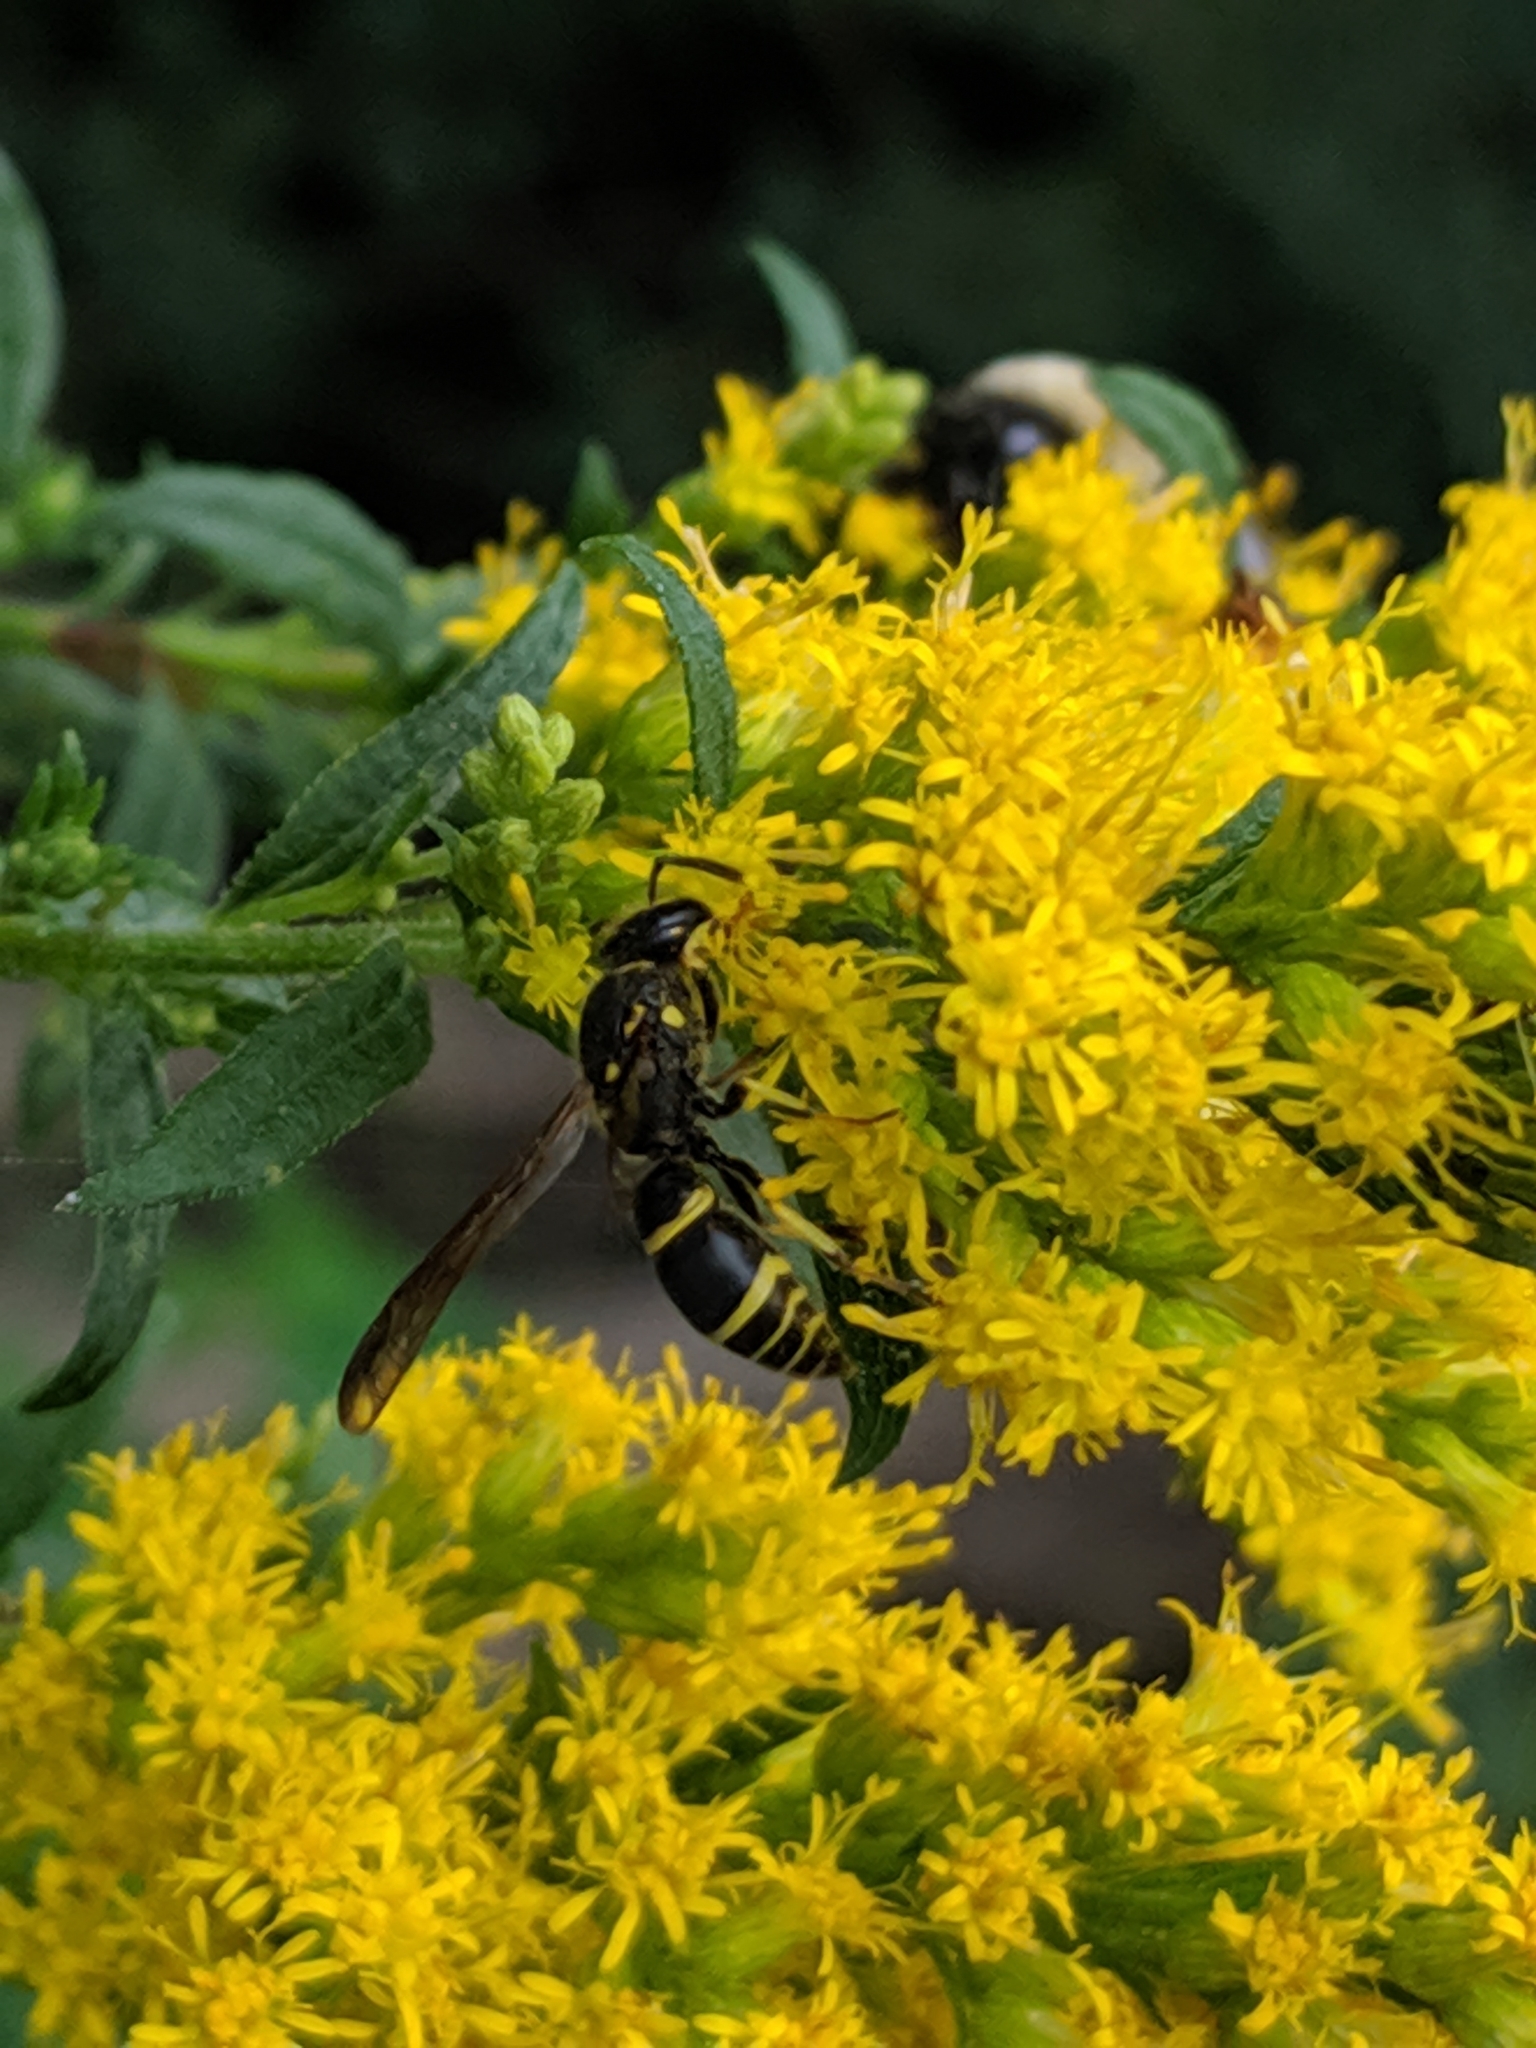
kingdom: Animalia
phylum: Arthropoda
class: Insecta
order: Hymenoptera
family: Vespidae
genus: Ancistrocerus
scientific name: Ancistrocerus
